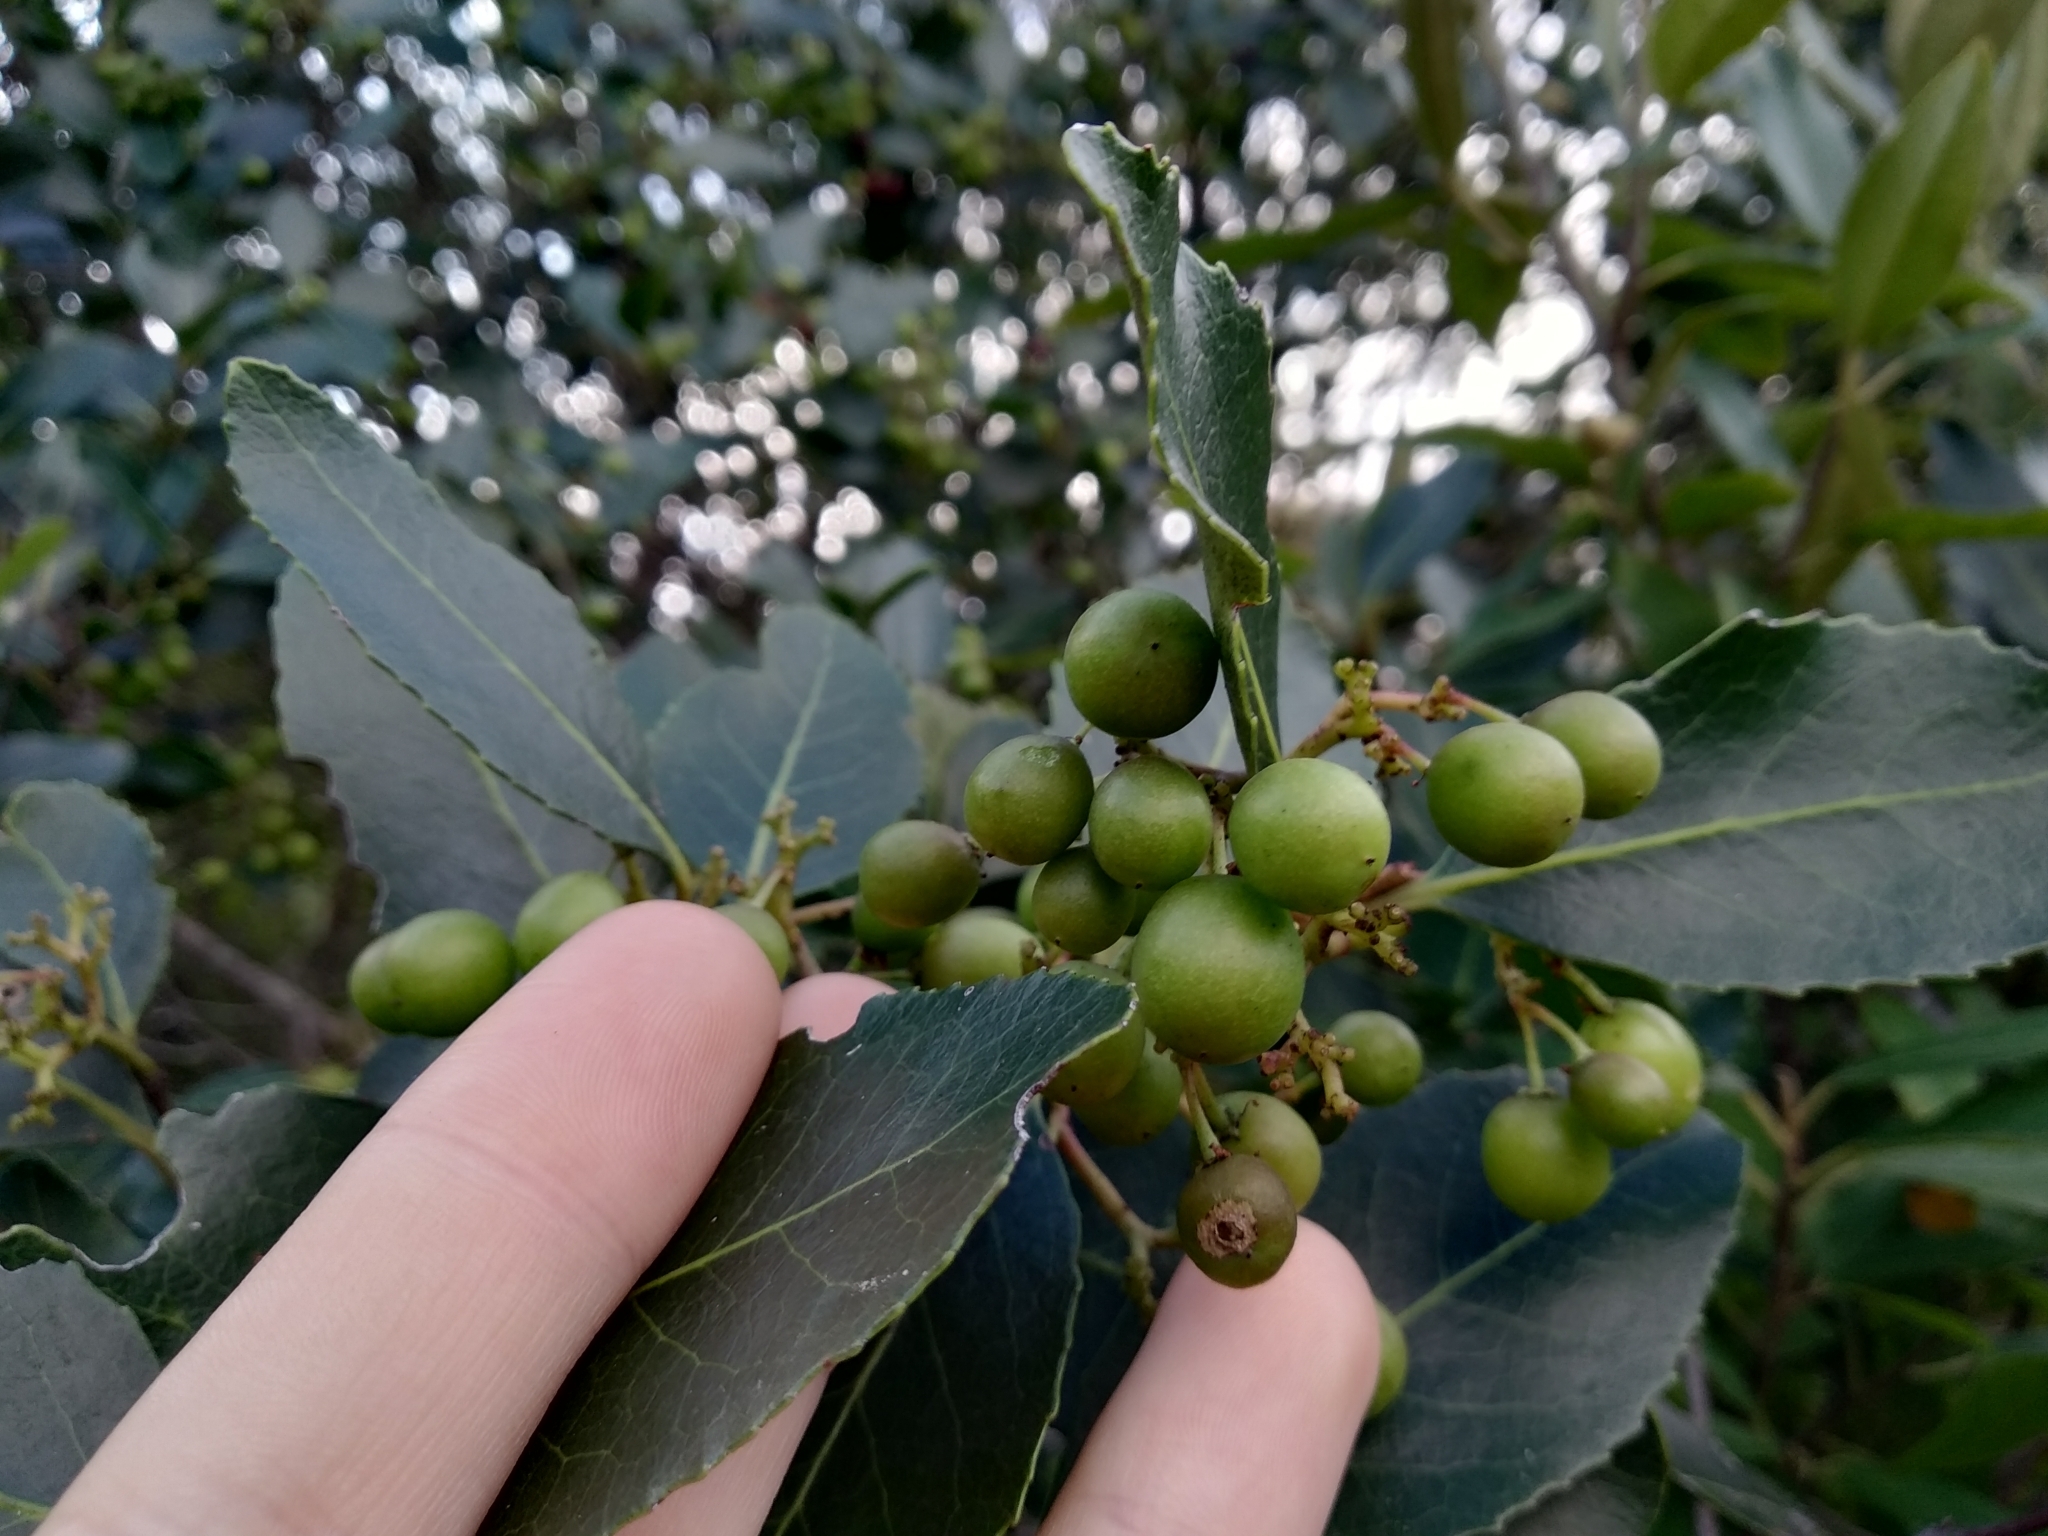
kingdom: Plantae
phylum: Tracheophyta
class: Magnoliopsida
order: Celastrales
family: Celastraceae
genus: Cassine
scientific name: Cassine peragua
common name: Cape saffron
